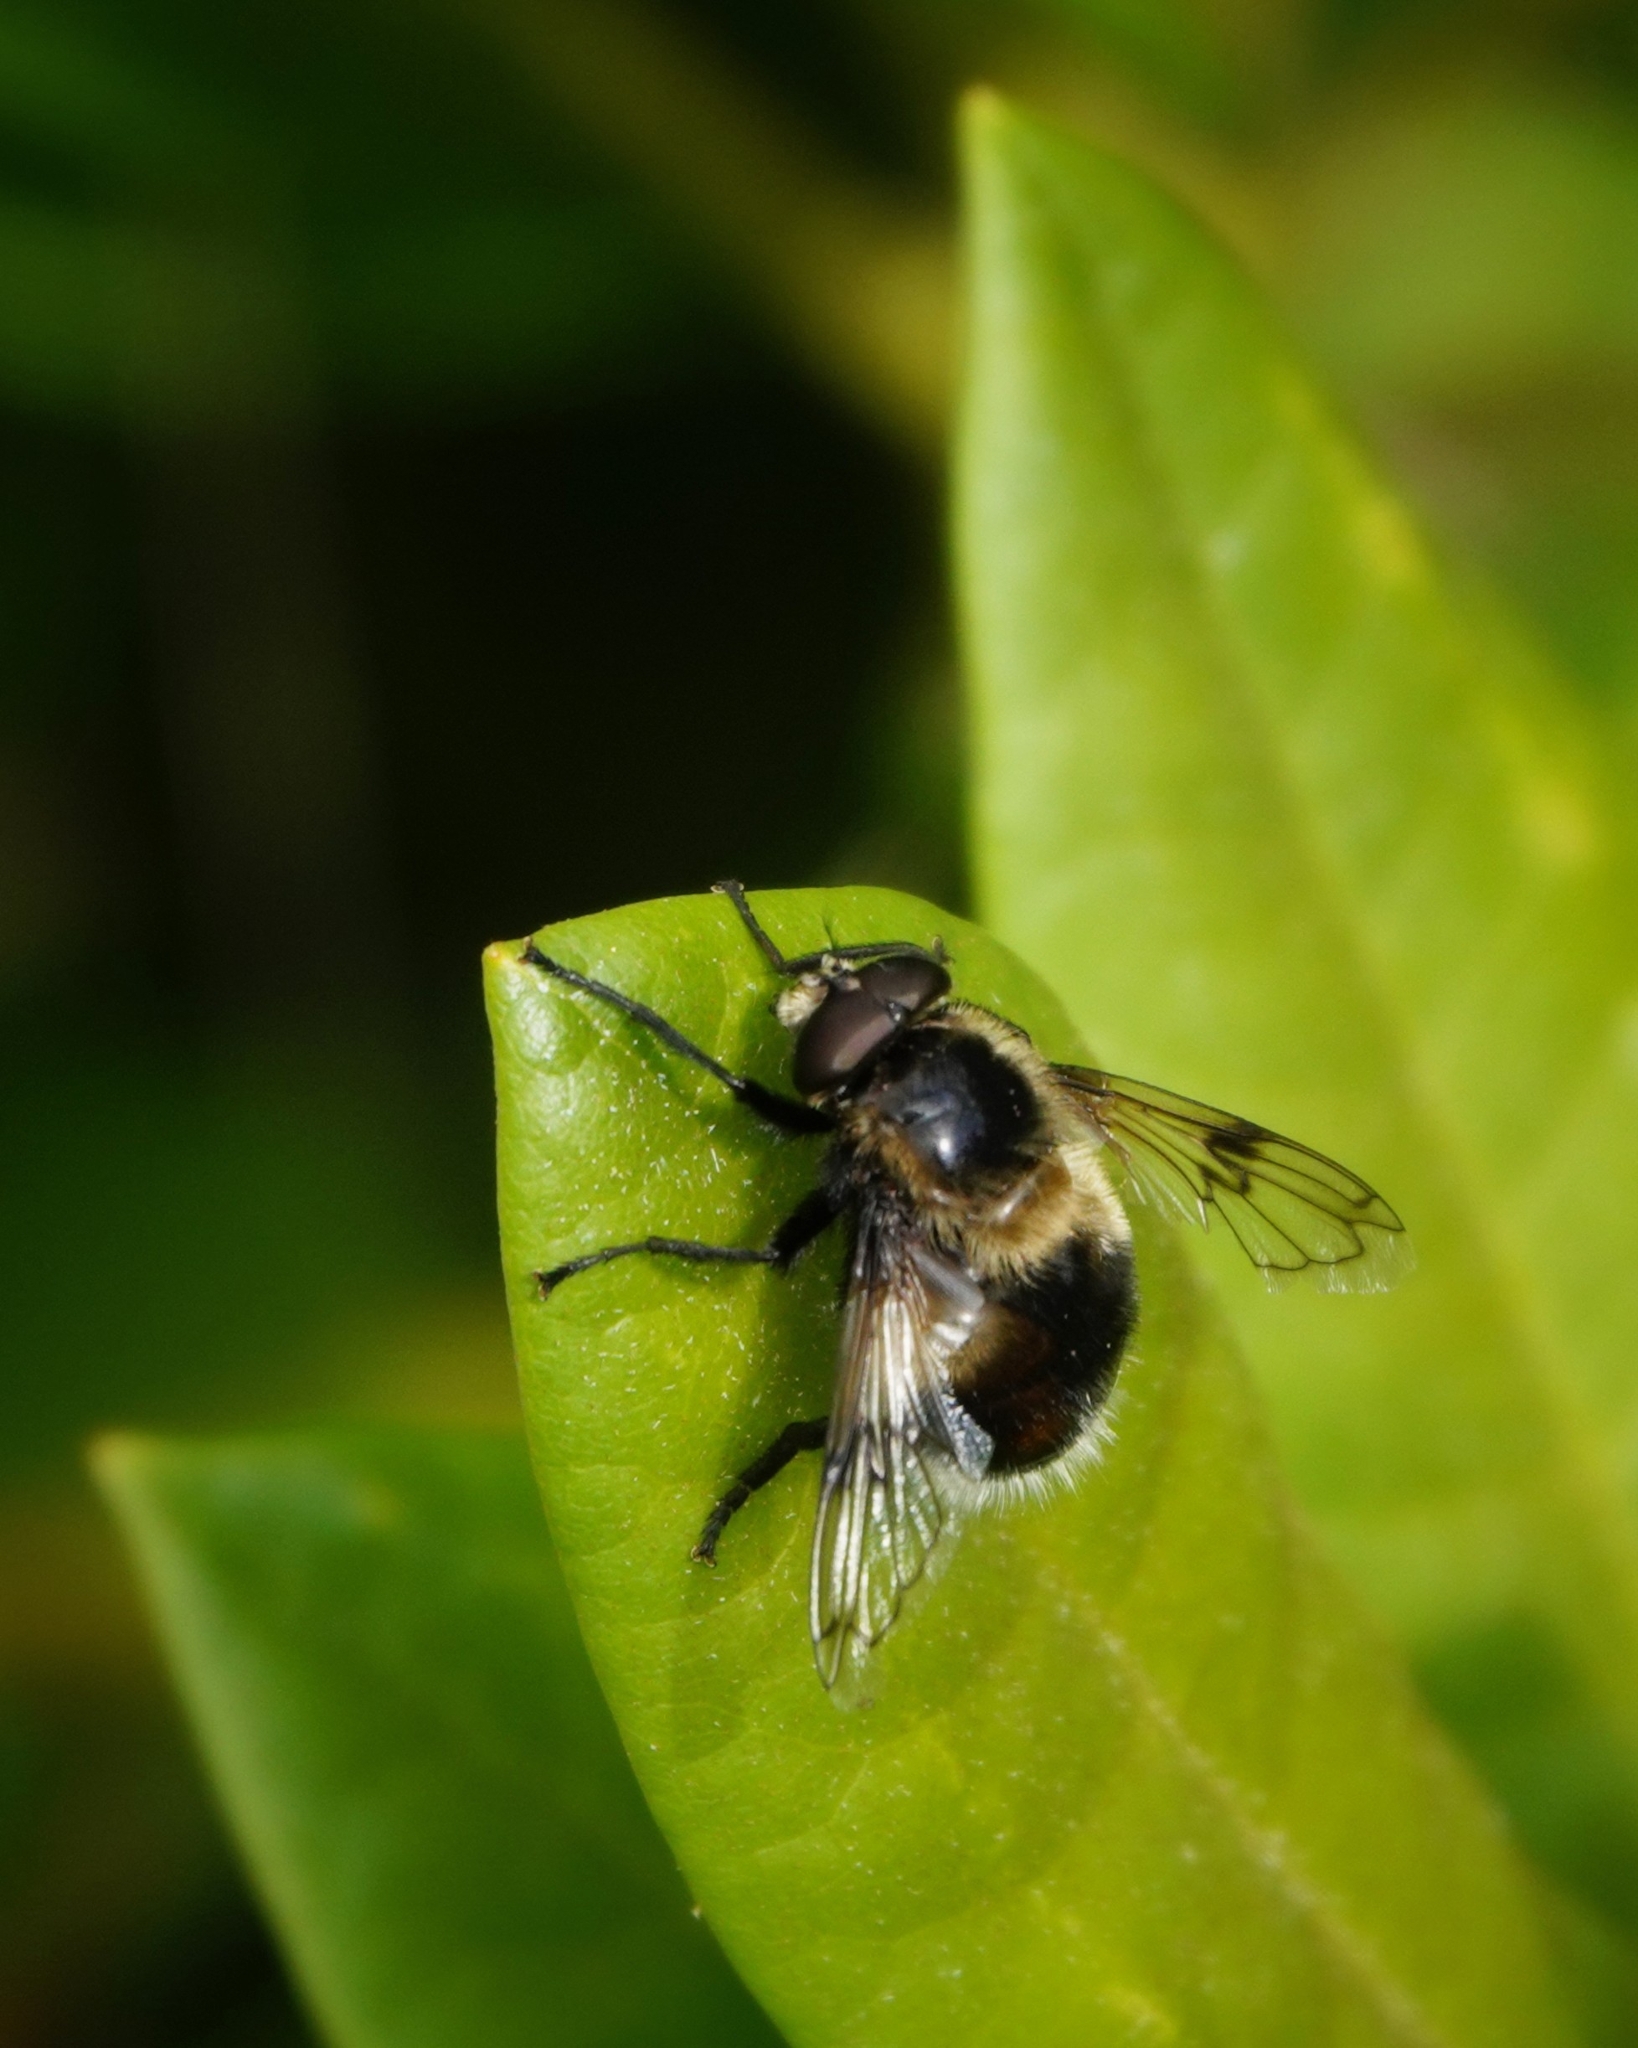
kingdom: Animalia
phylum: Arthropoda
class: Insecta
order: Diptera
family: Syrphidae
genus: Volucella
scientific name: Volucella bombylans
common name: Bumble bee hover fly
